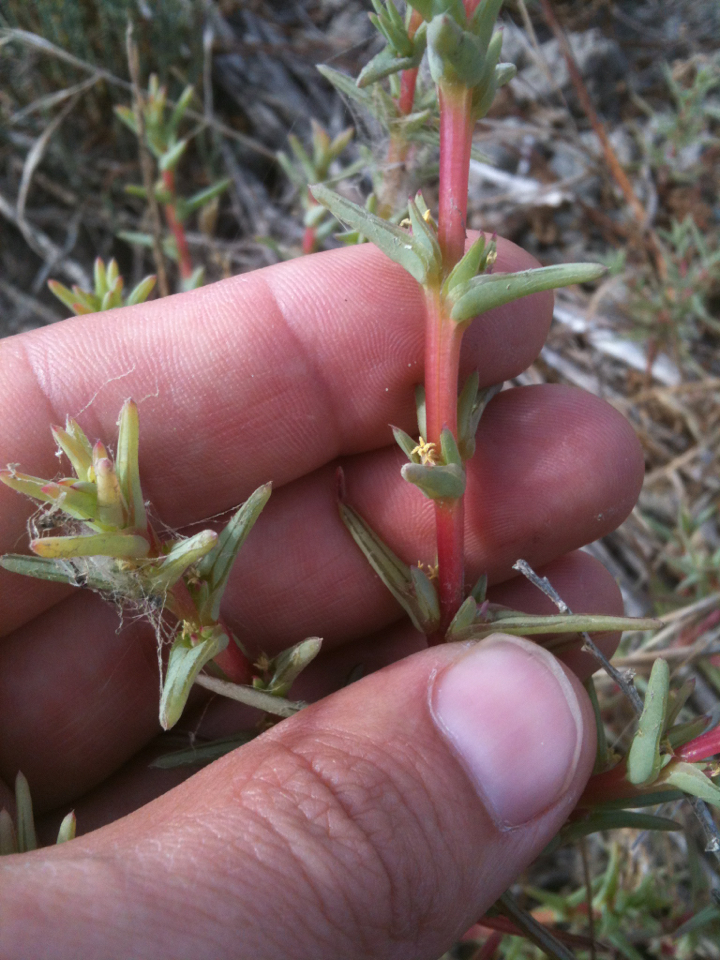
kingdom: Plantae
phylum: Tracheophyta
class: Magnoliopsida
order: Caryophyllales
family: Amaranthaceae
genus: Salsola
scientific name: Salsola soda
